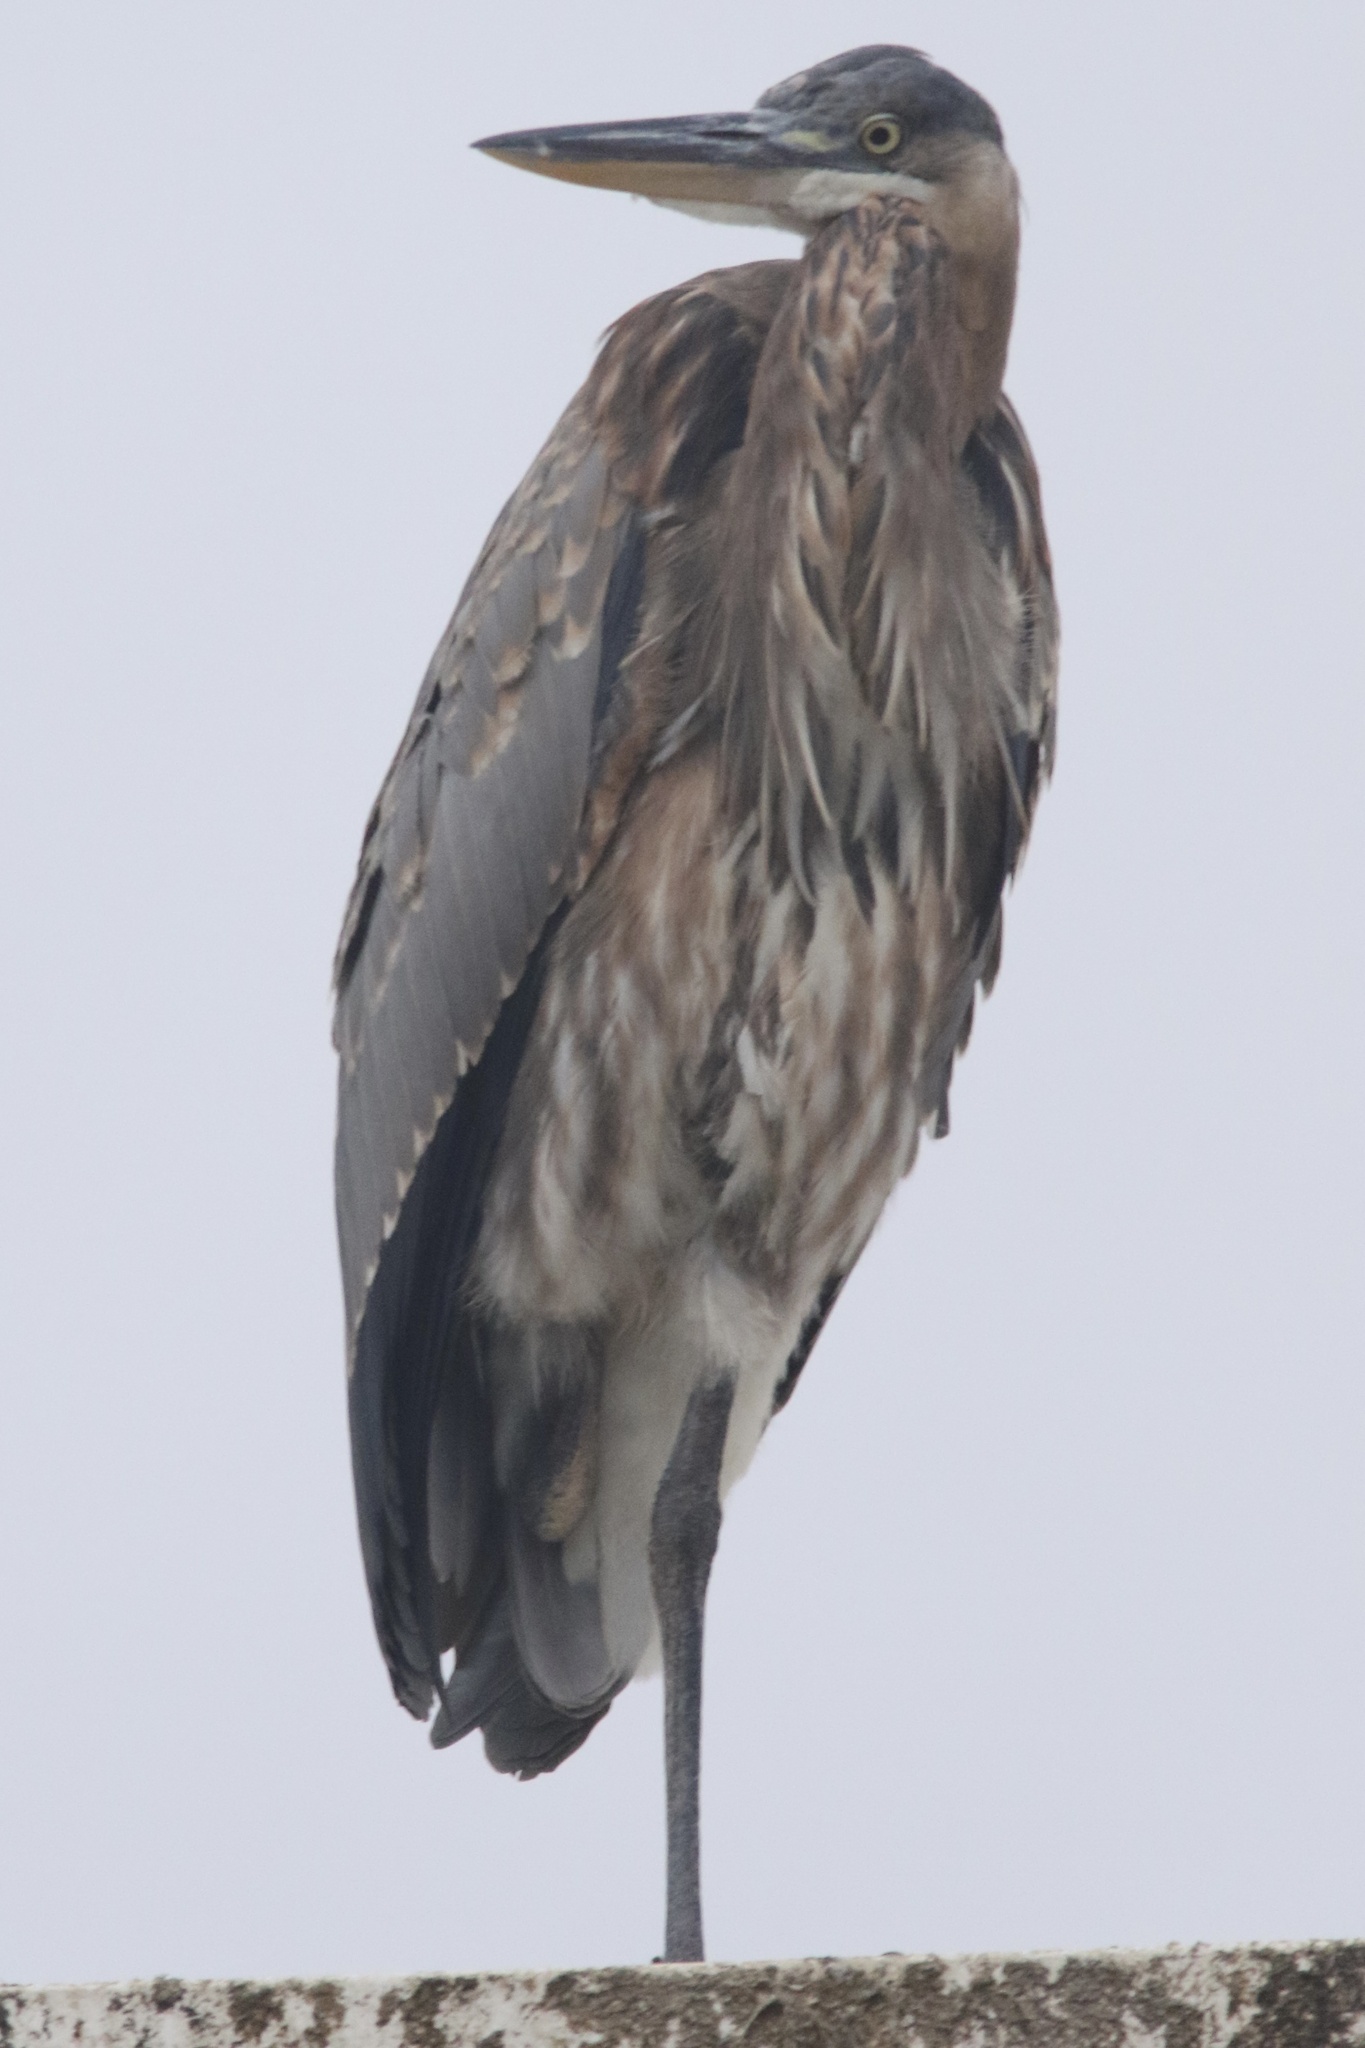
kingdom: Animalia
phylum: Chordata
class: Aves
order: Pelecaniformes
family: Ardeidae
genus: Ardea
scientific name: Ardea herodias
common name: Great blue heron
